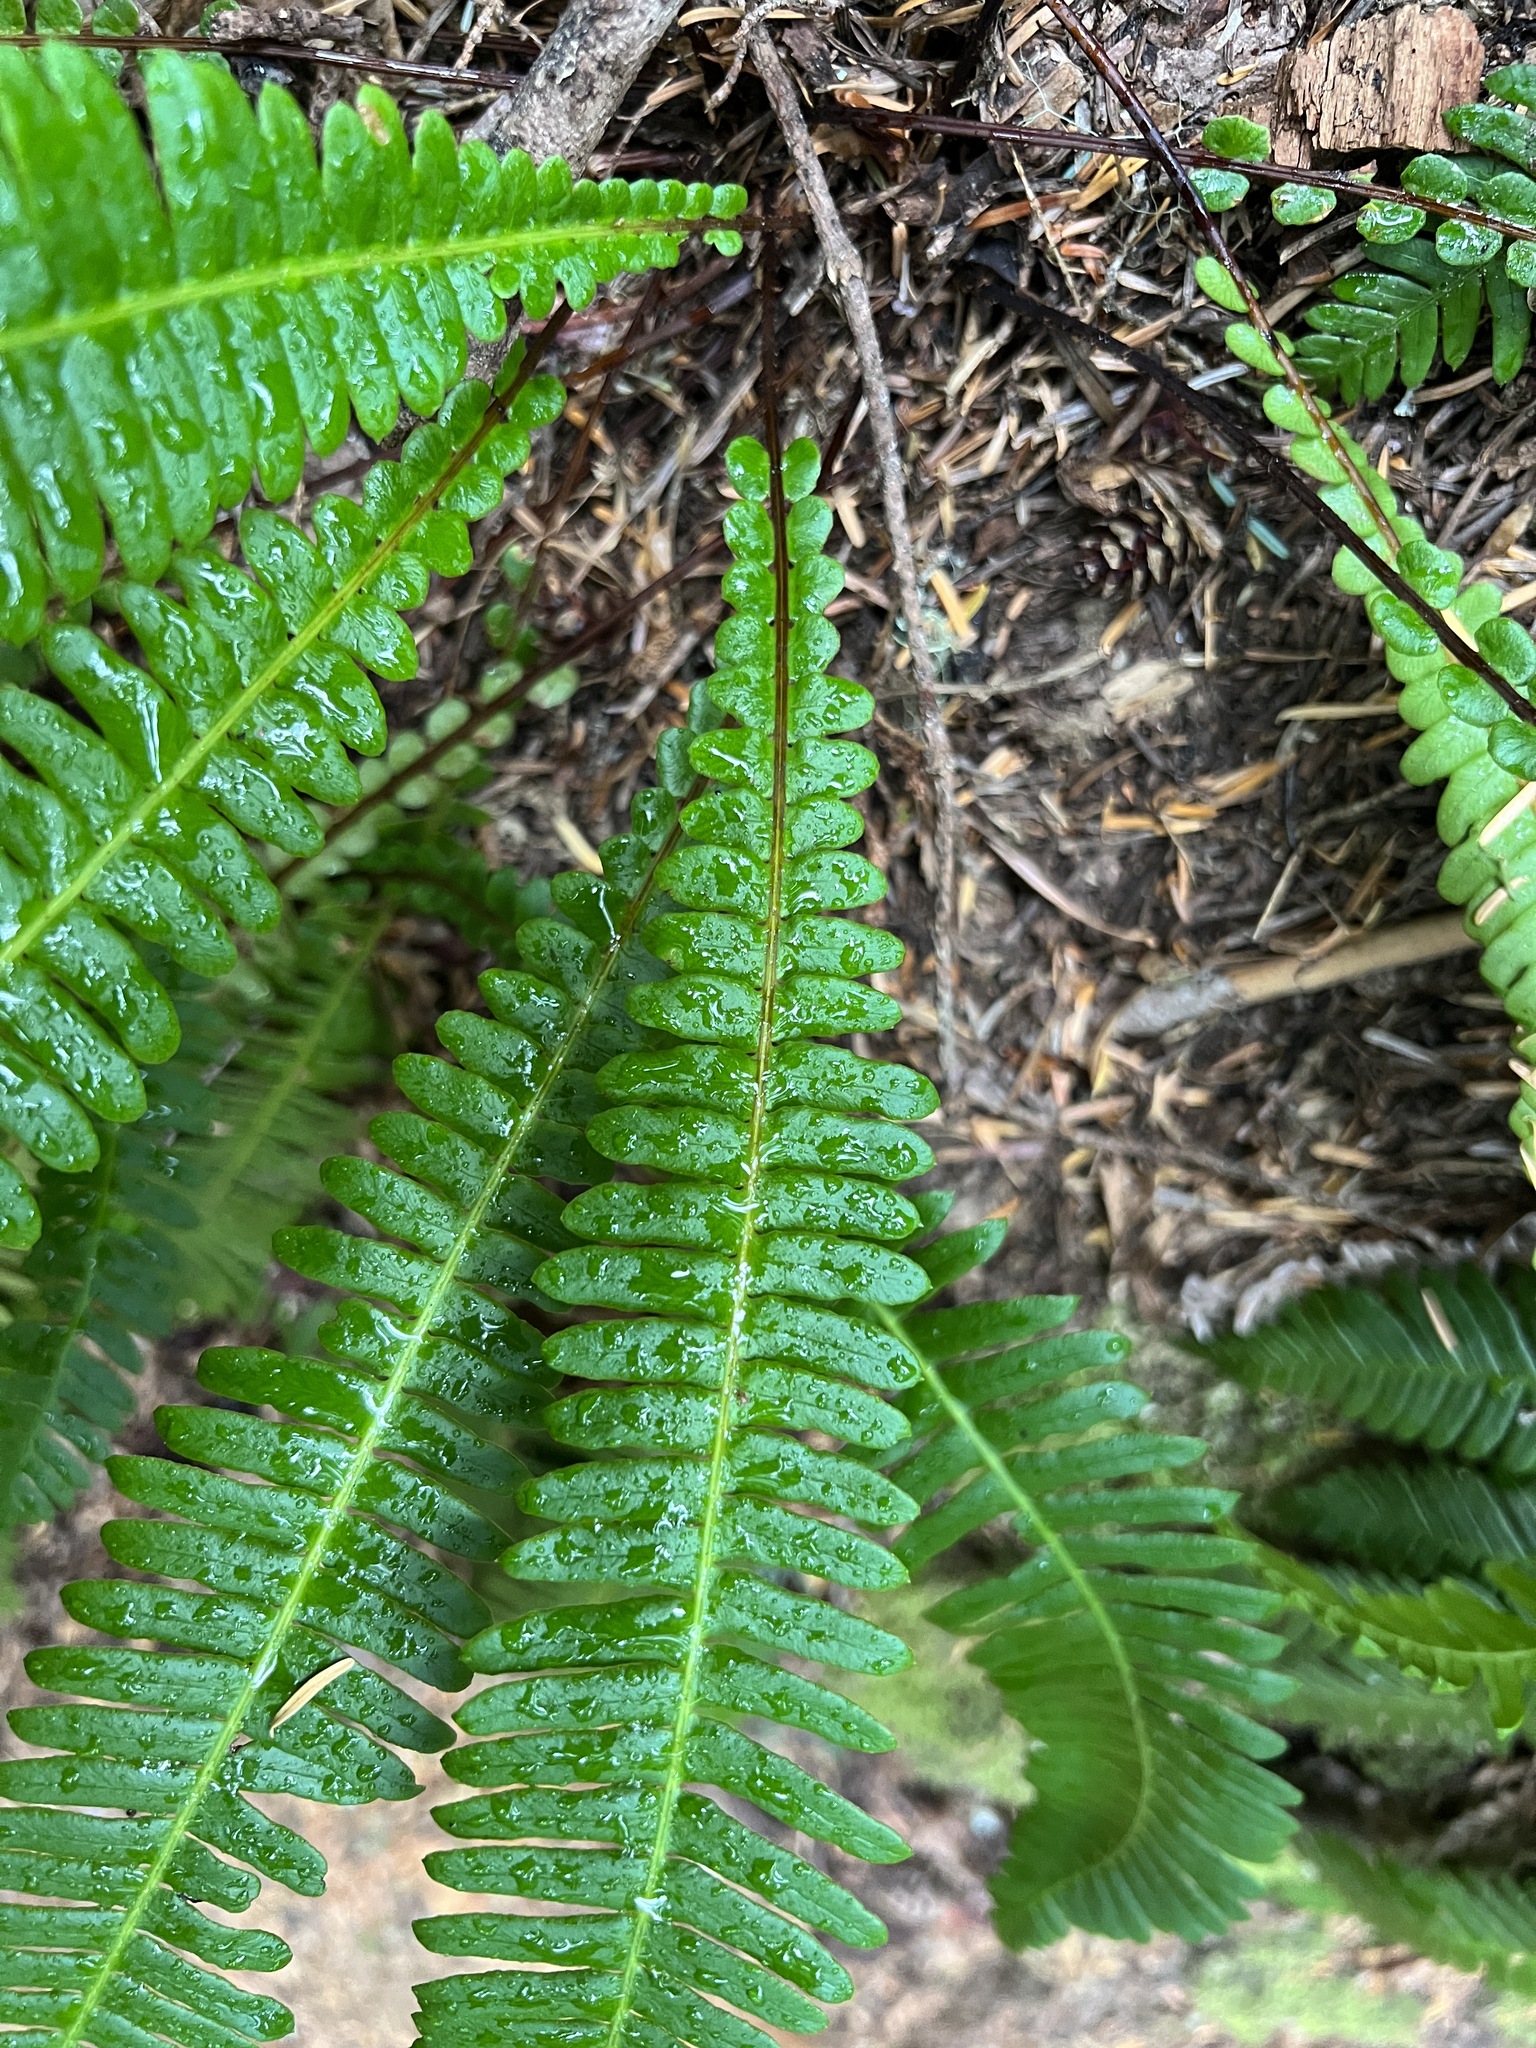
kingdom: Plantae
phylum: Tracheophyta
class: Polypodiopsida
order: Polypodiales
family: Blechnaceae
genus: Struthiopteris
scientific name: Struthiopteris spicant
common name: Deer fern
